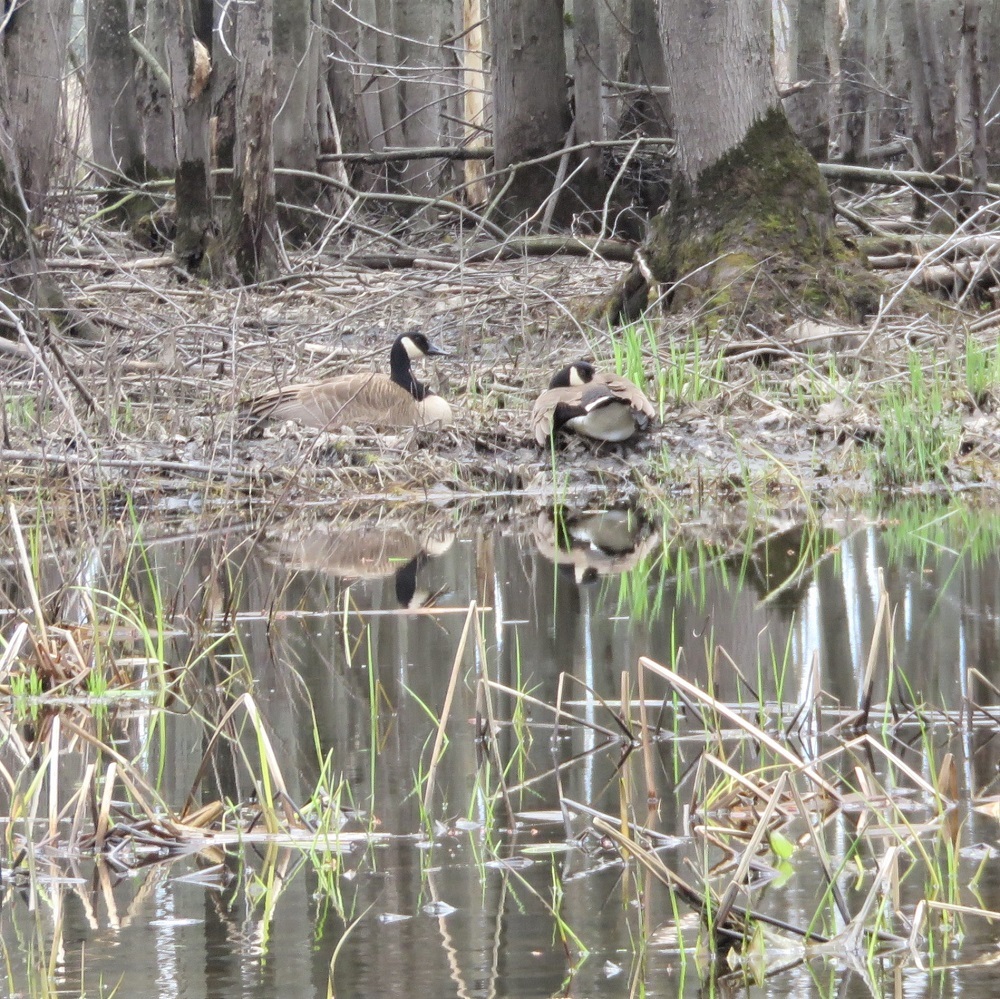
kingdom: Animalia
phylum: Chordata
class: Aves
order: Anseriformes
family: Anatidae
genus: Branta
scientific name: Branta canadensis
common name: Canada goose
